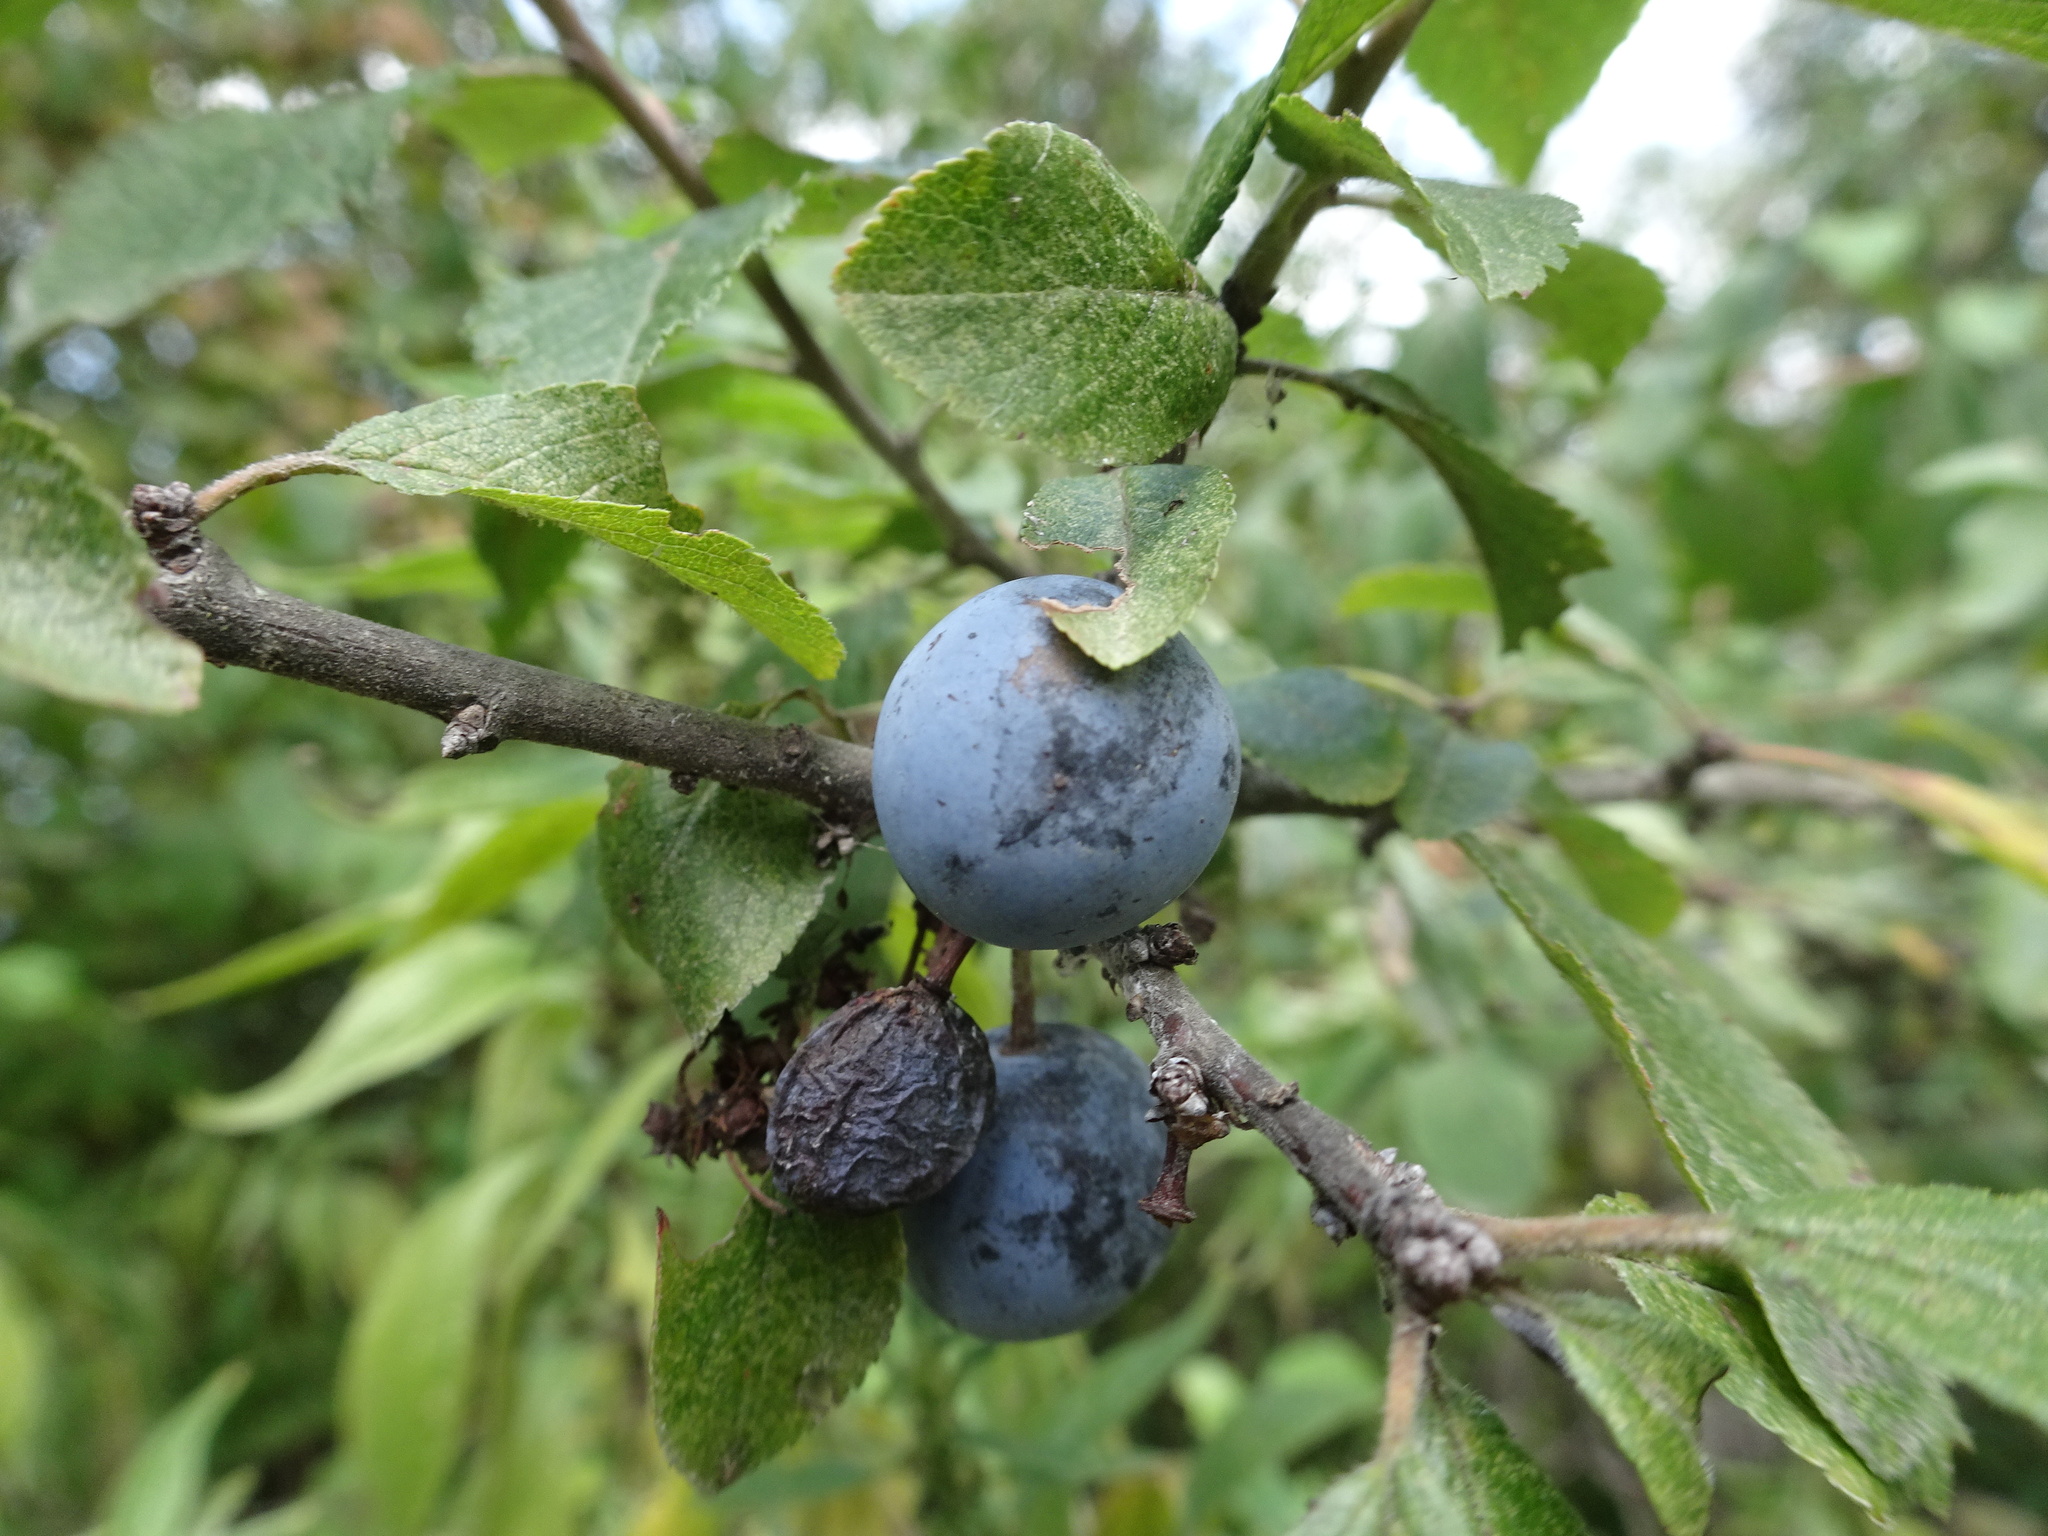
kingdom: Plantae
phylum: Tracheophyta
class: Magnoliopsida
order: Rosales
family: Rosaceae
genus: Prunus
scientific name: Prunus spinosa
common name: Blackthorn
